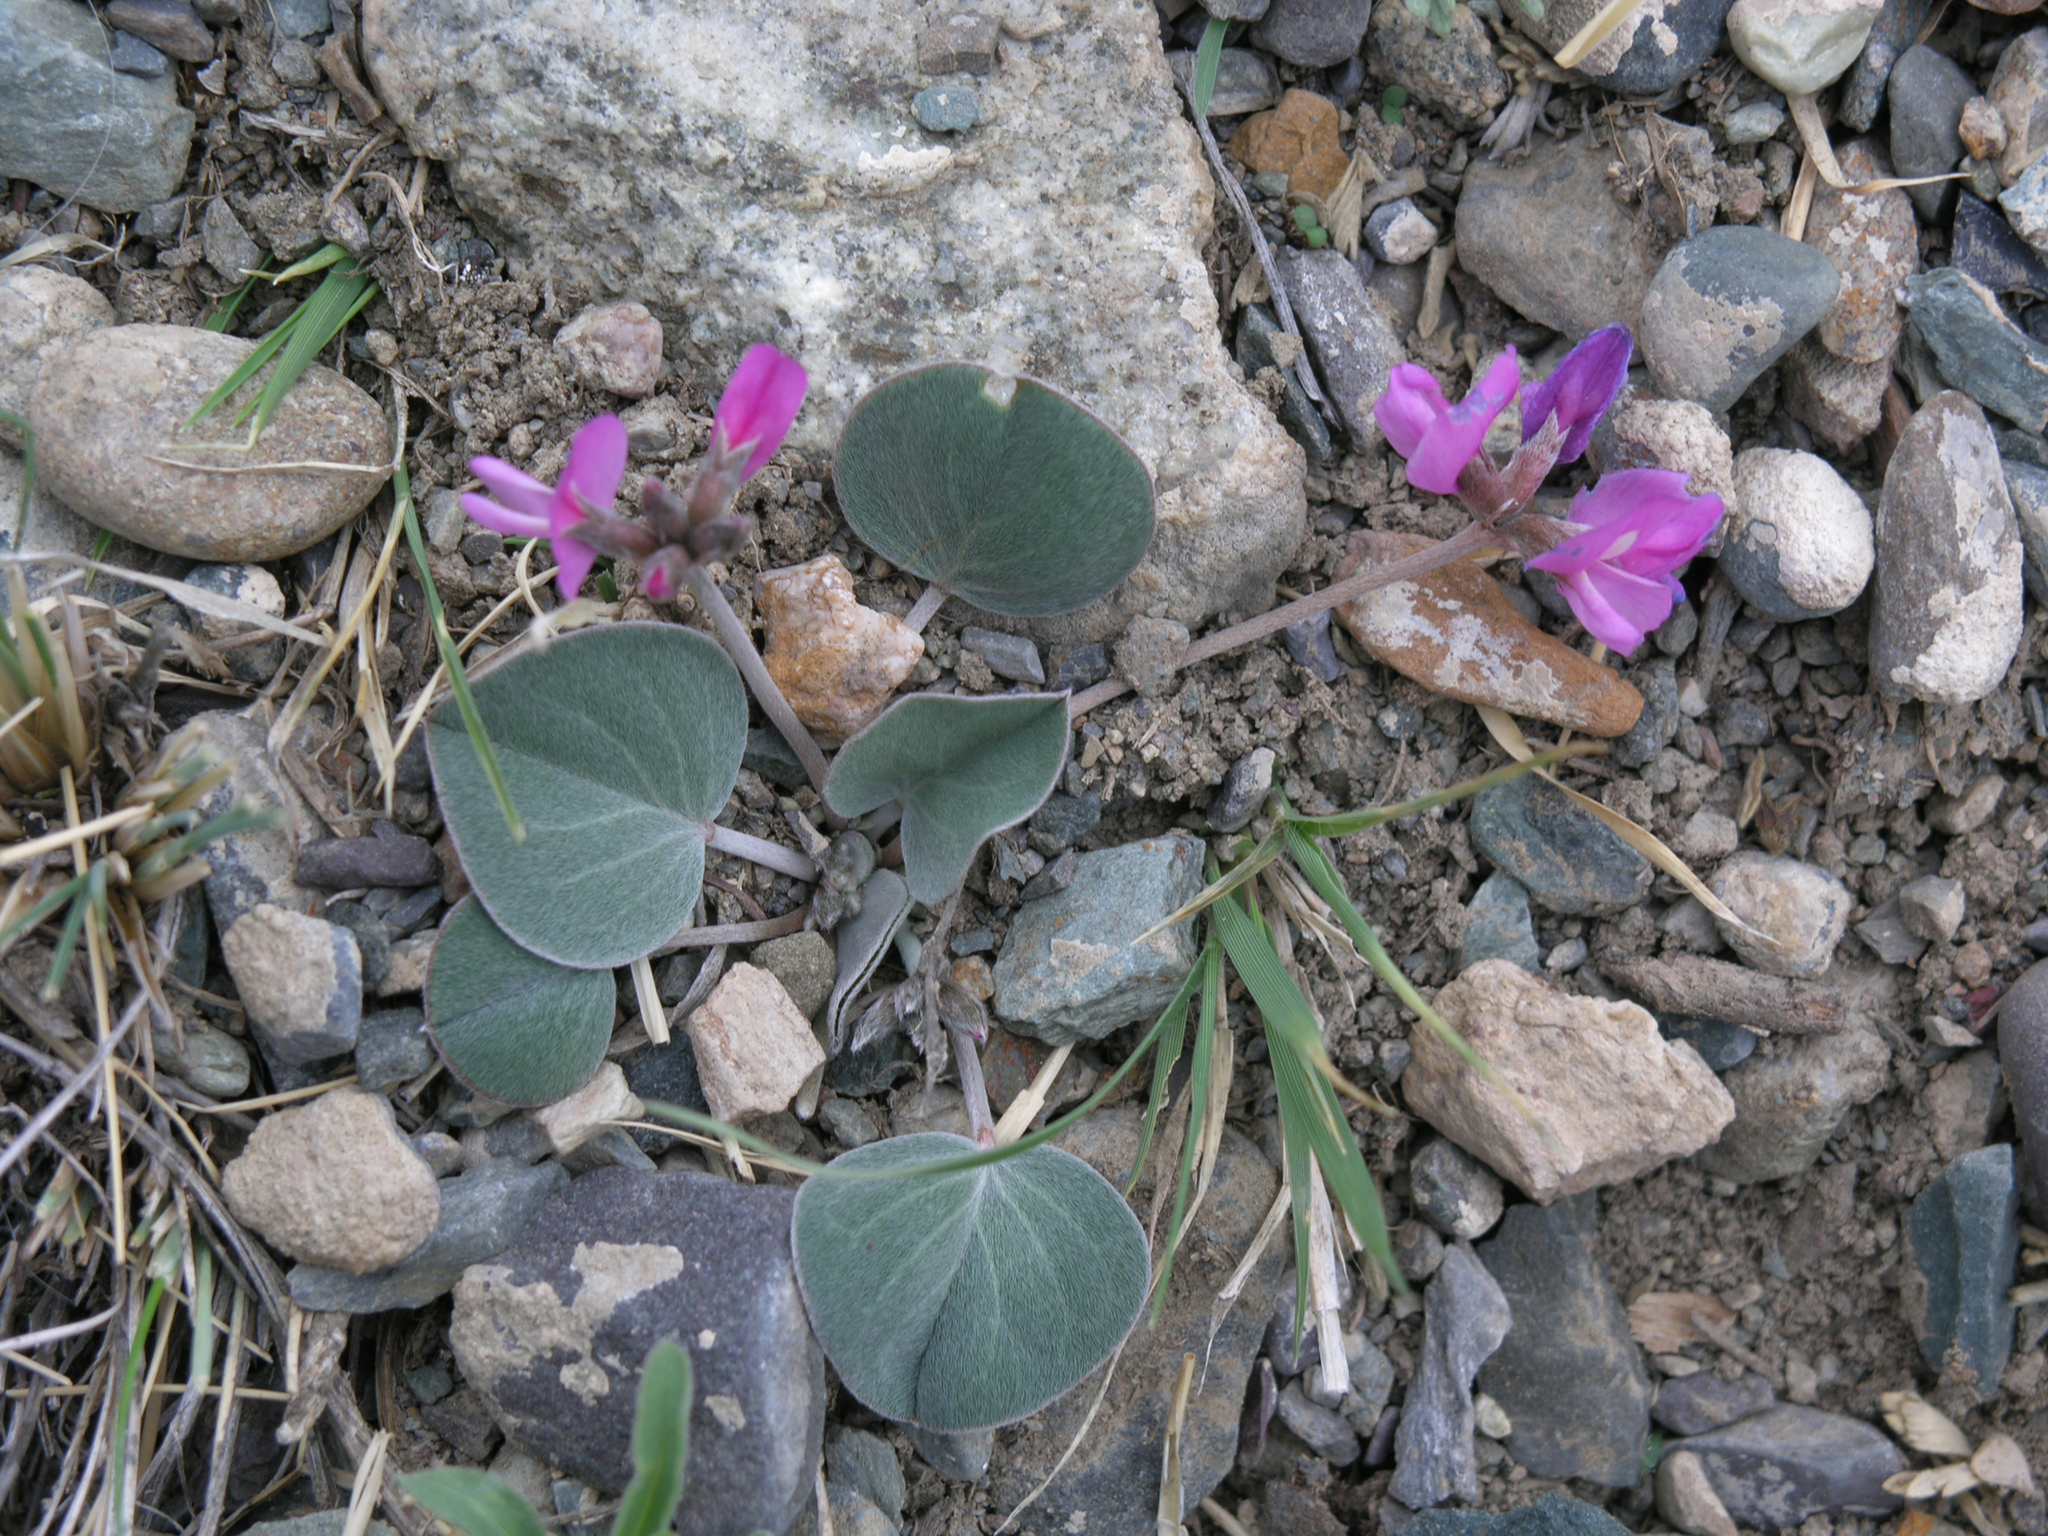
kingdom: Plantae
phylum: Tracheophyta
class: Magnoliopsida
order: Fabales
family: Fabaceae
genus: Gueldenstaedtia
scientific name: Gueldenstaedtia monophylla
